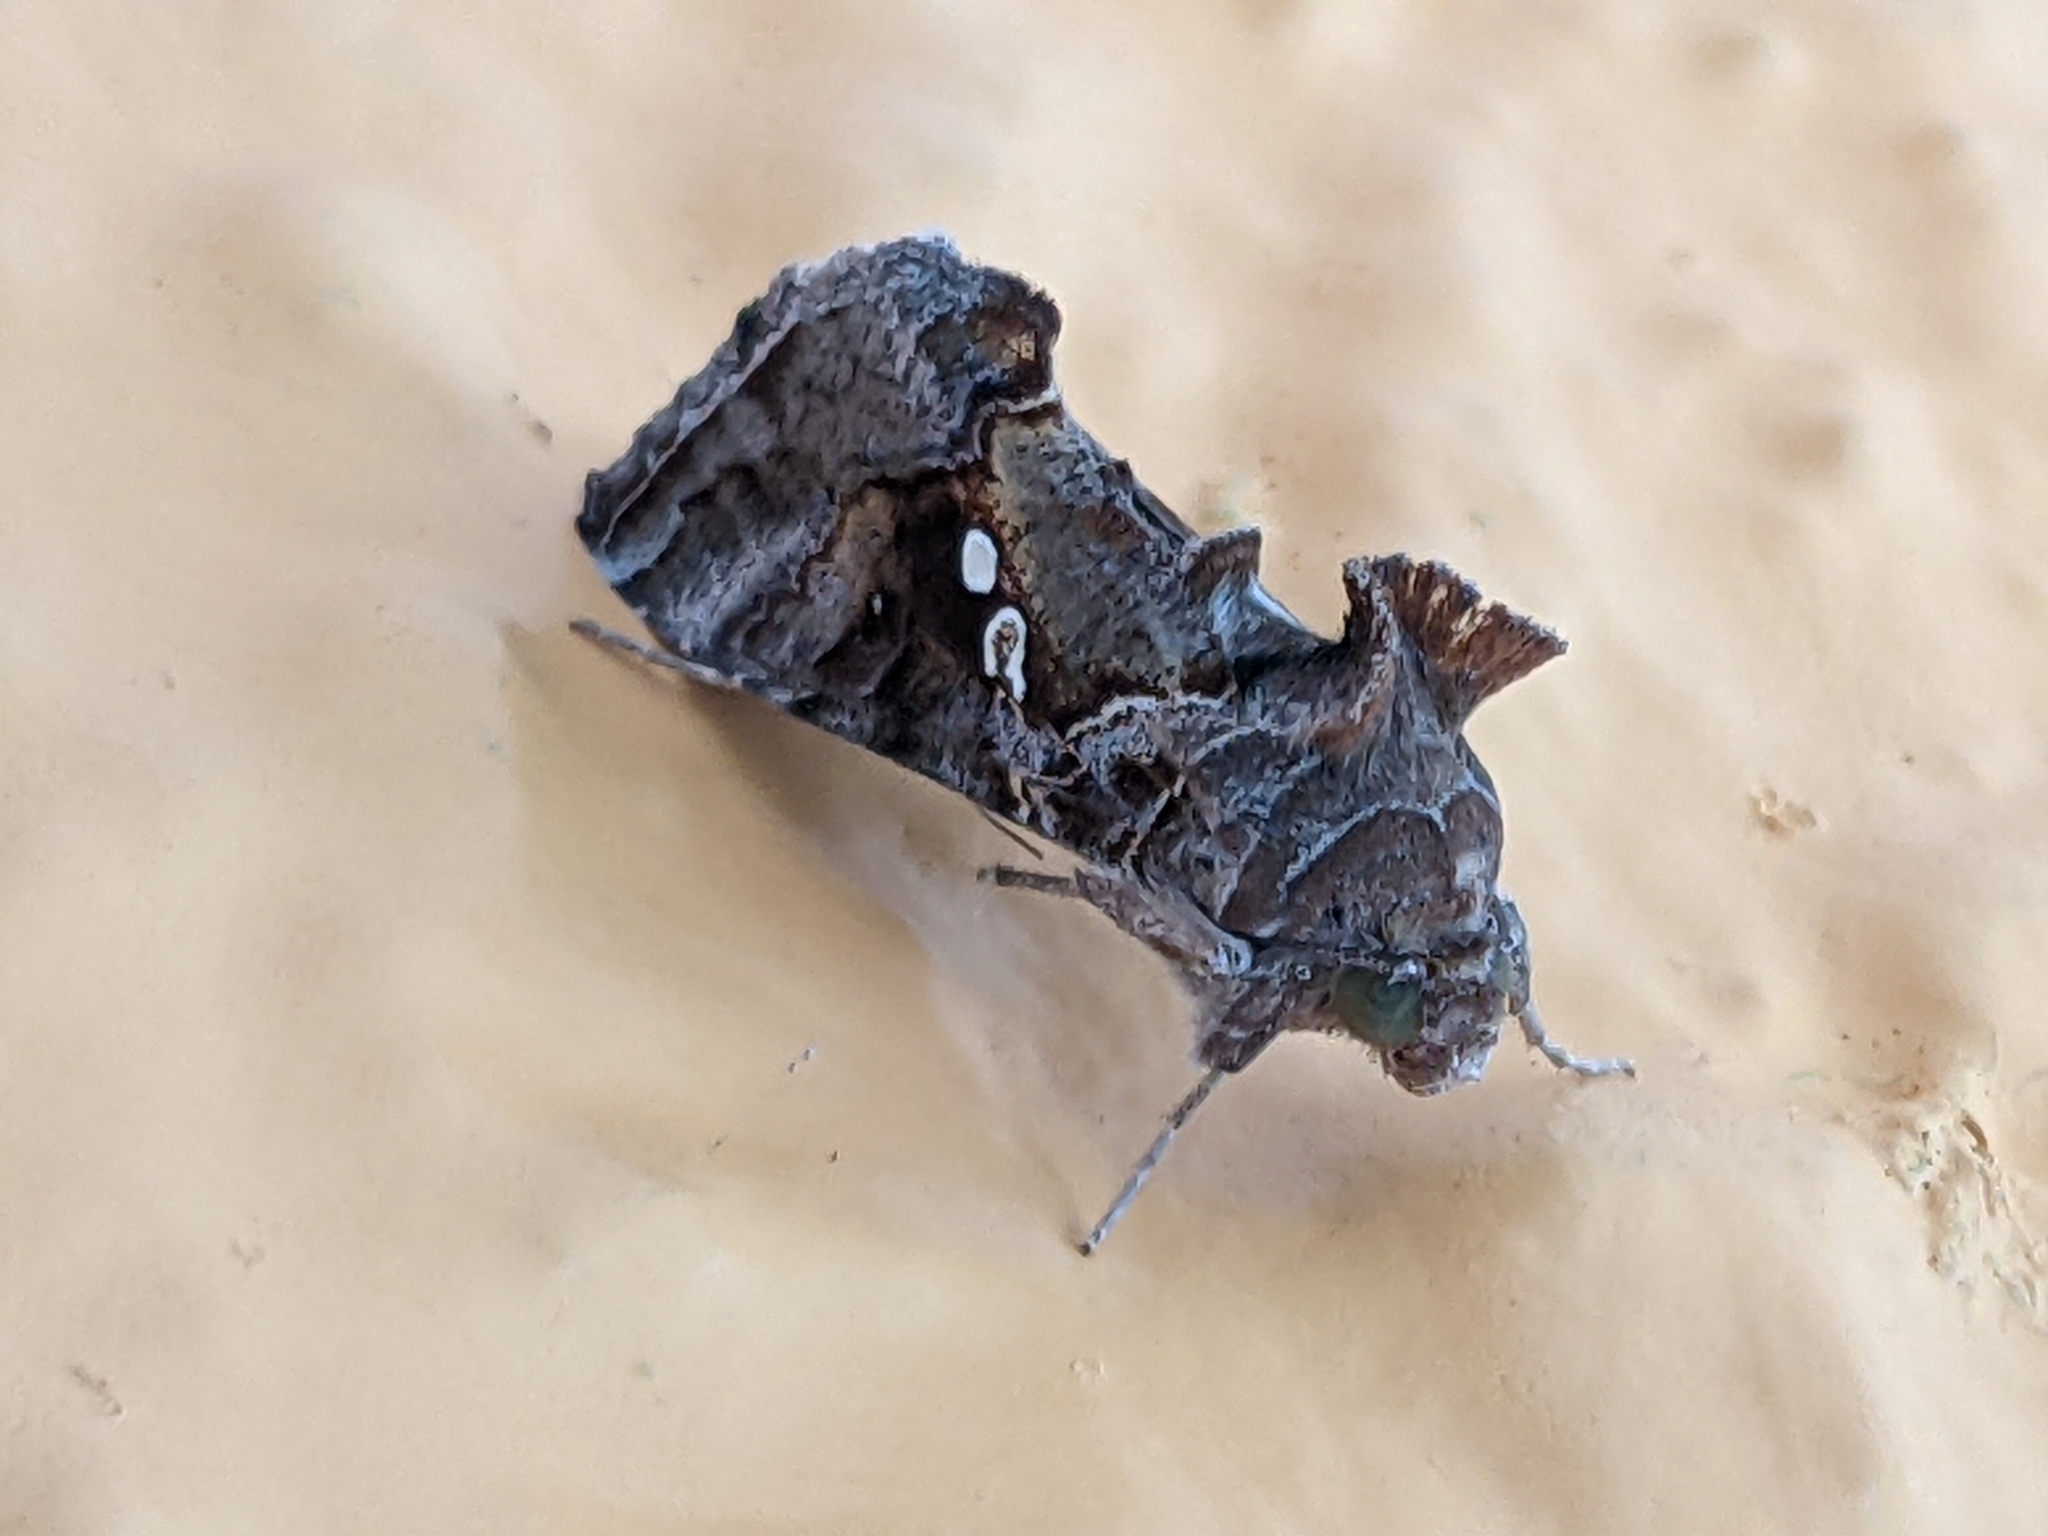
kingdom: Animalia
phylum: Arthropoda
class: Insecta
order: Lepidoptera
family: Noctuidae
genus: Chrysodeixis
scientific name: Chrysodeixis includens
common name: Cutworm moth
